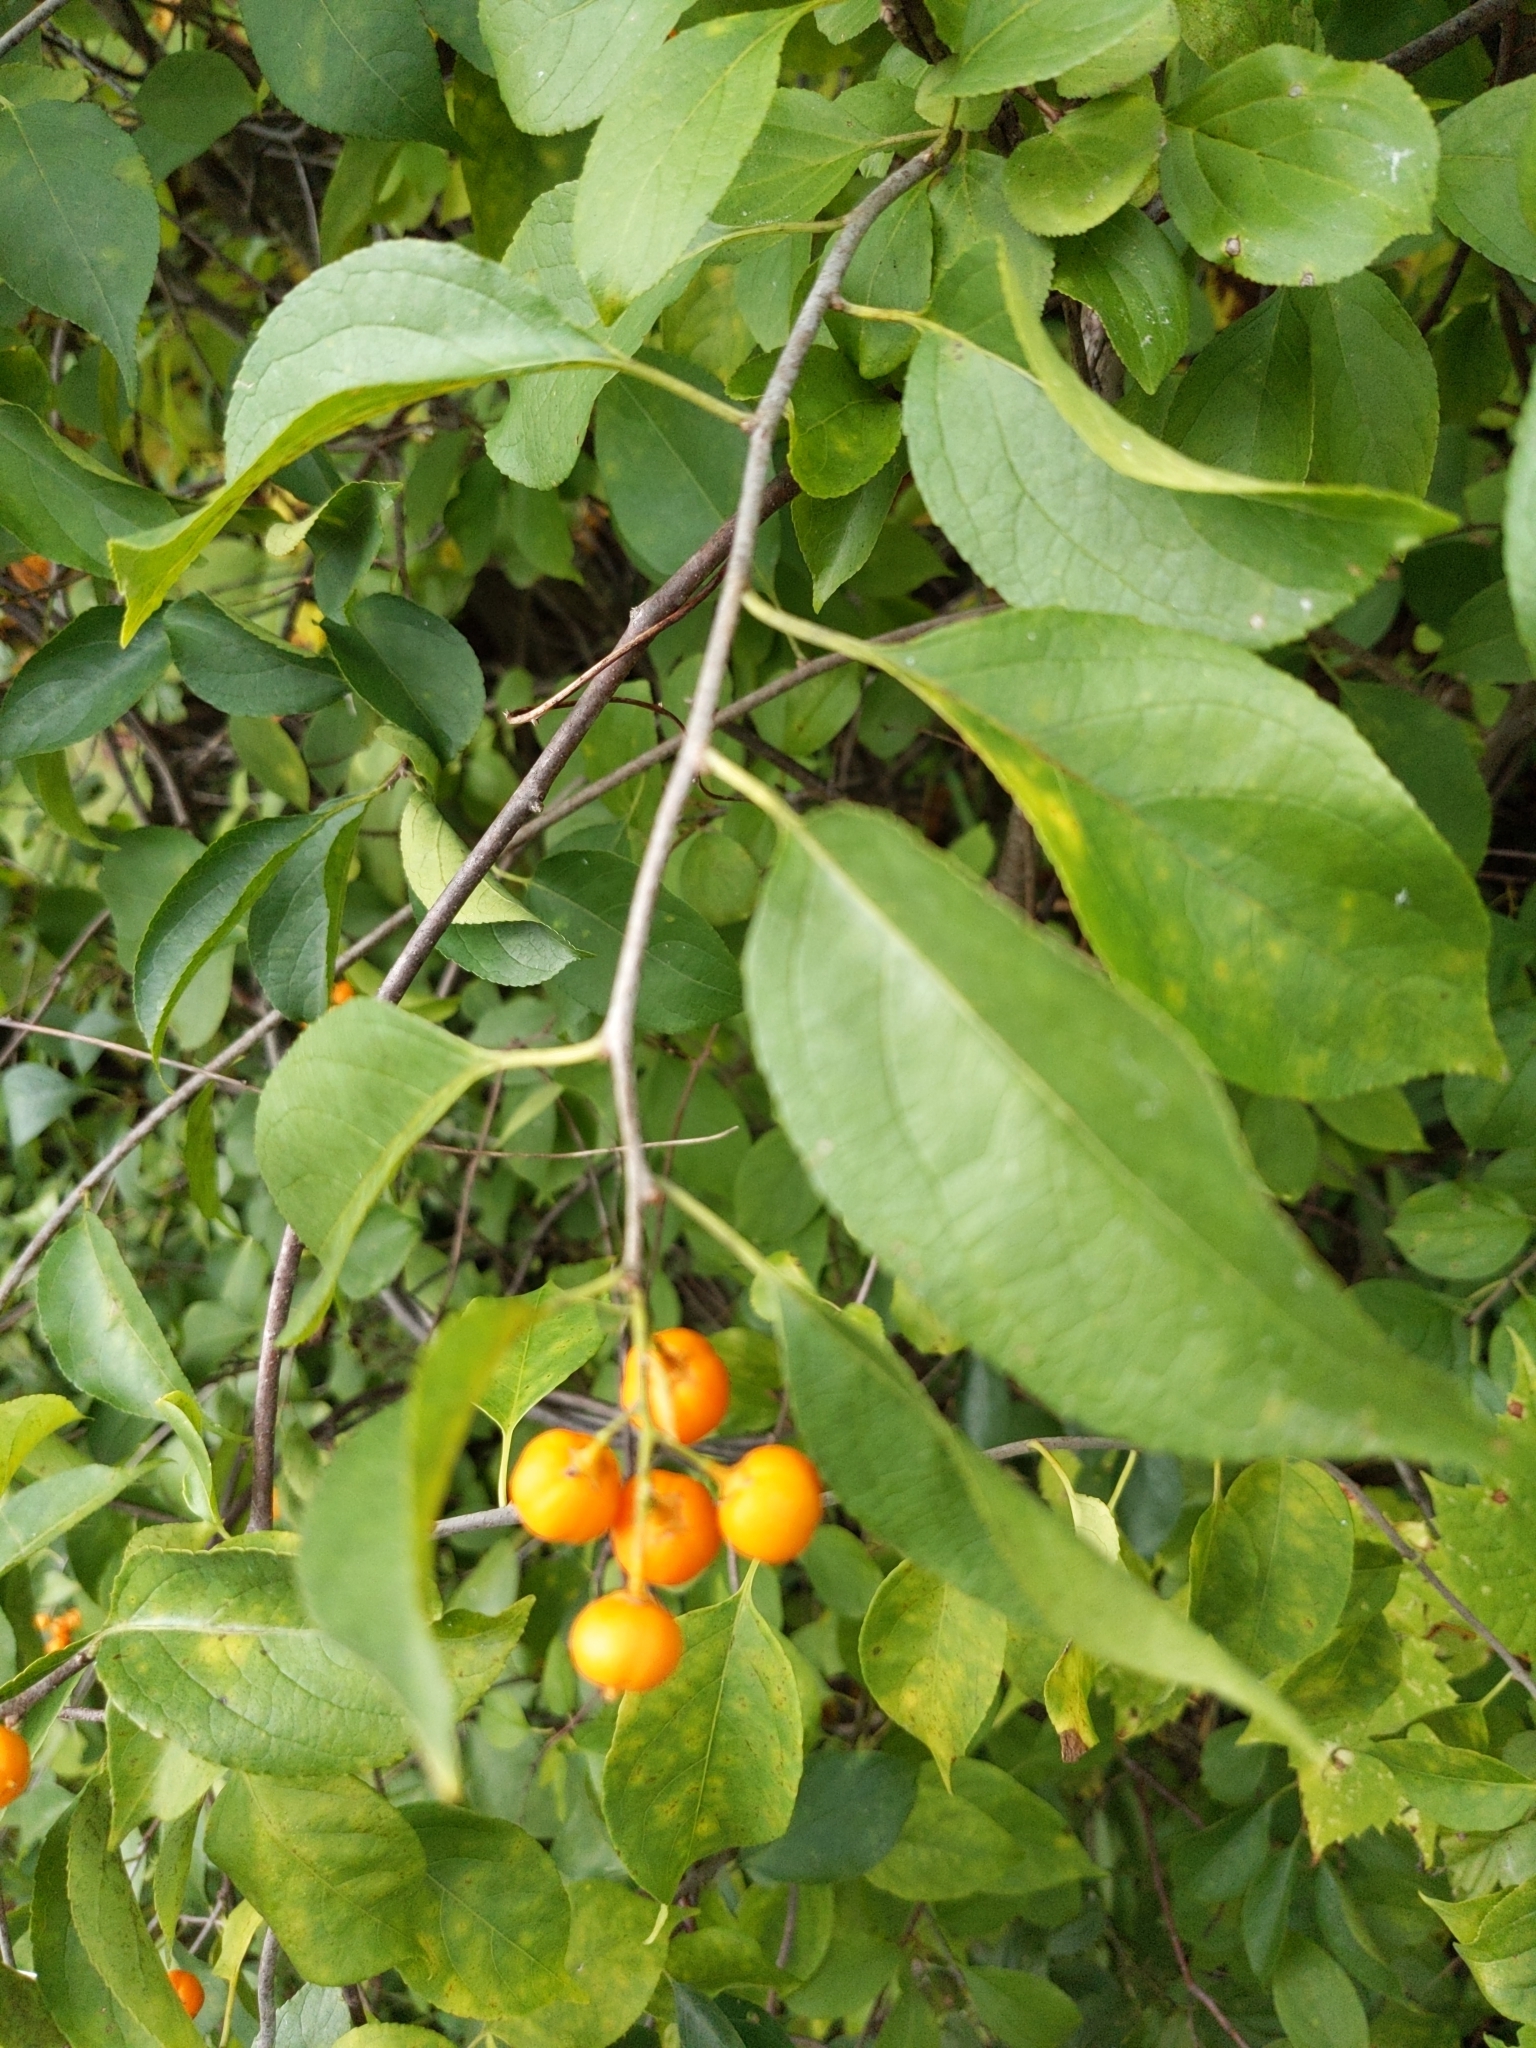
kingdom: Plantae
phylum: Tracheophyta
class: Magnoliopsida
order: Celastrales
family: Celastraceae
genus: Celastrus
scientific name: Celastrus scandens
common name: American bittersweet
